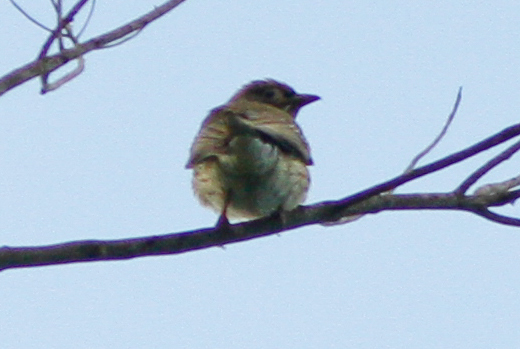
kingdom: Animalia
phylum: Chordata
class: Aves
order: Passeriformes
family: Oriolidae
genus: Sphecotheres
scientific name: Sphecotheres vieilloti
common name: Australasian figbird
